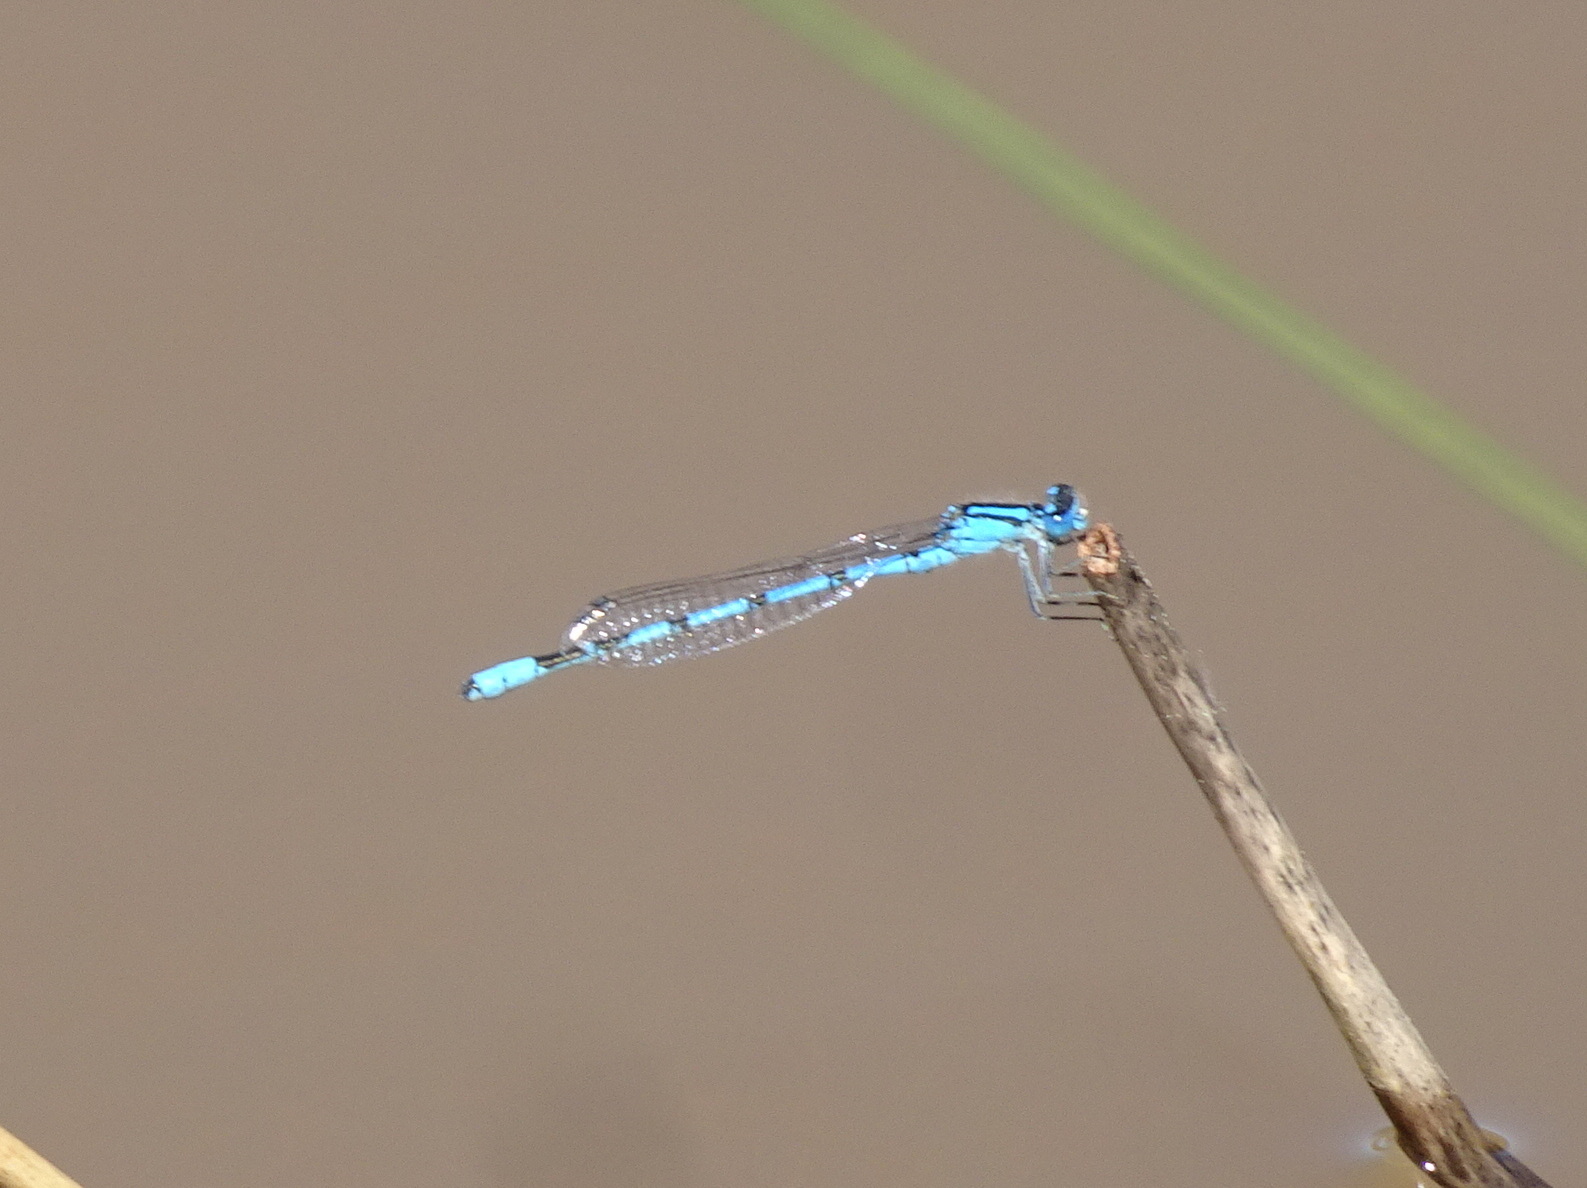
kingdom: Animalia
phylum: Arthropoda
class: Insecta
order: Odonata
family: Coenagrionidae
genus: Enallagma
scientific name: Enallagma cyathigerum
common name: Common blue damselfly
